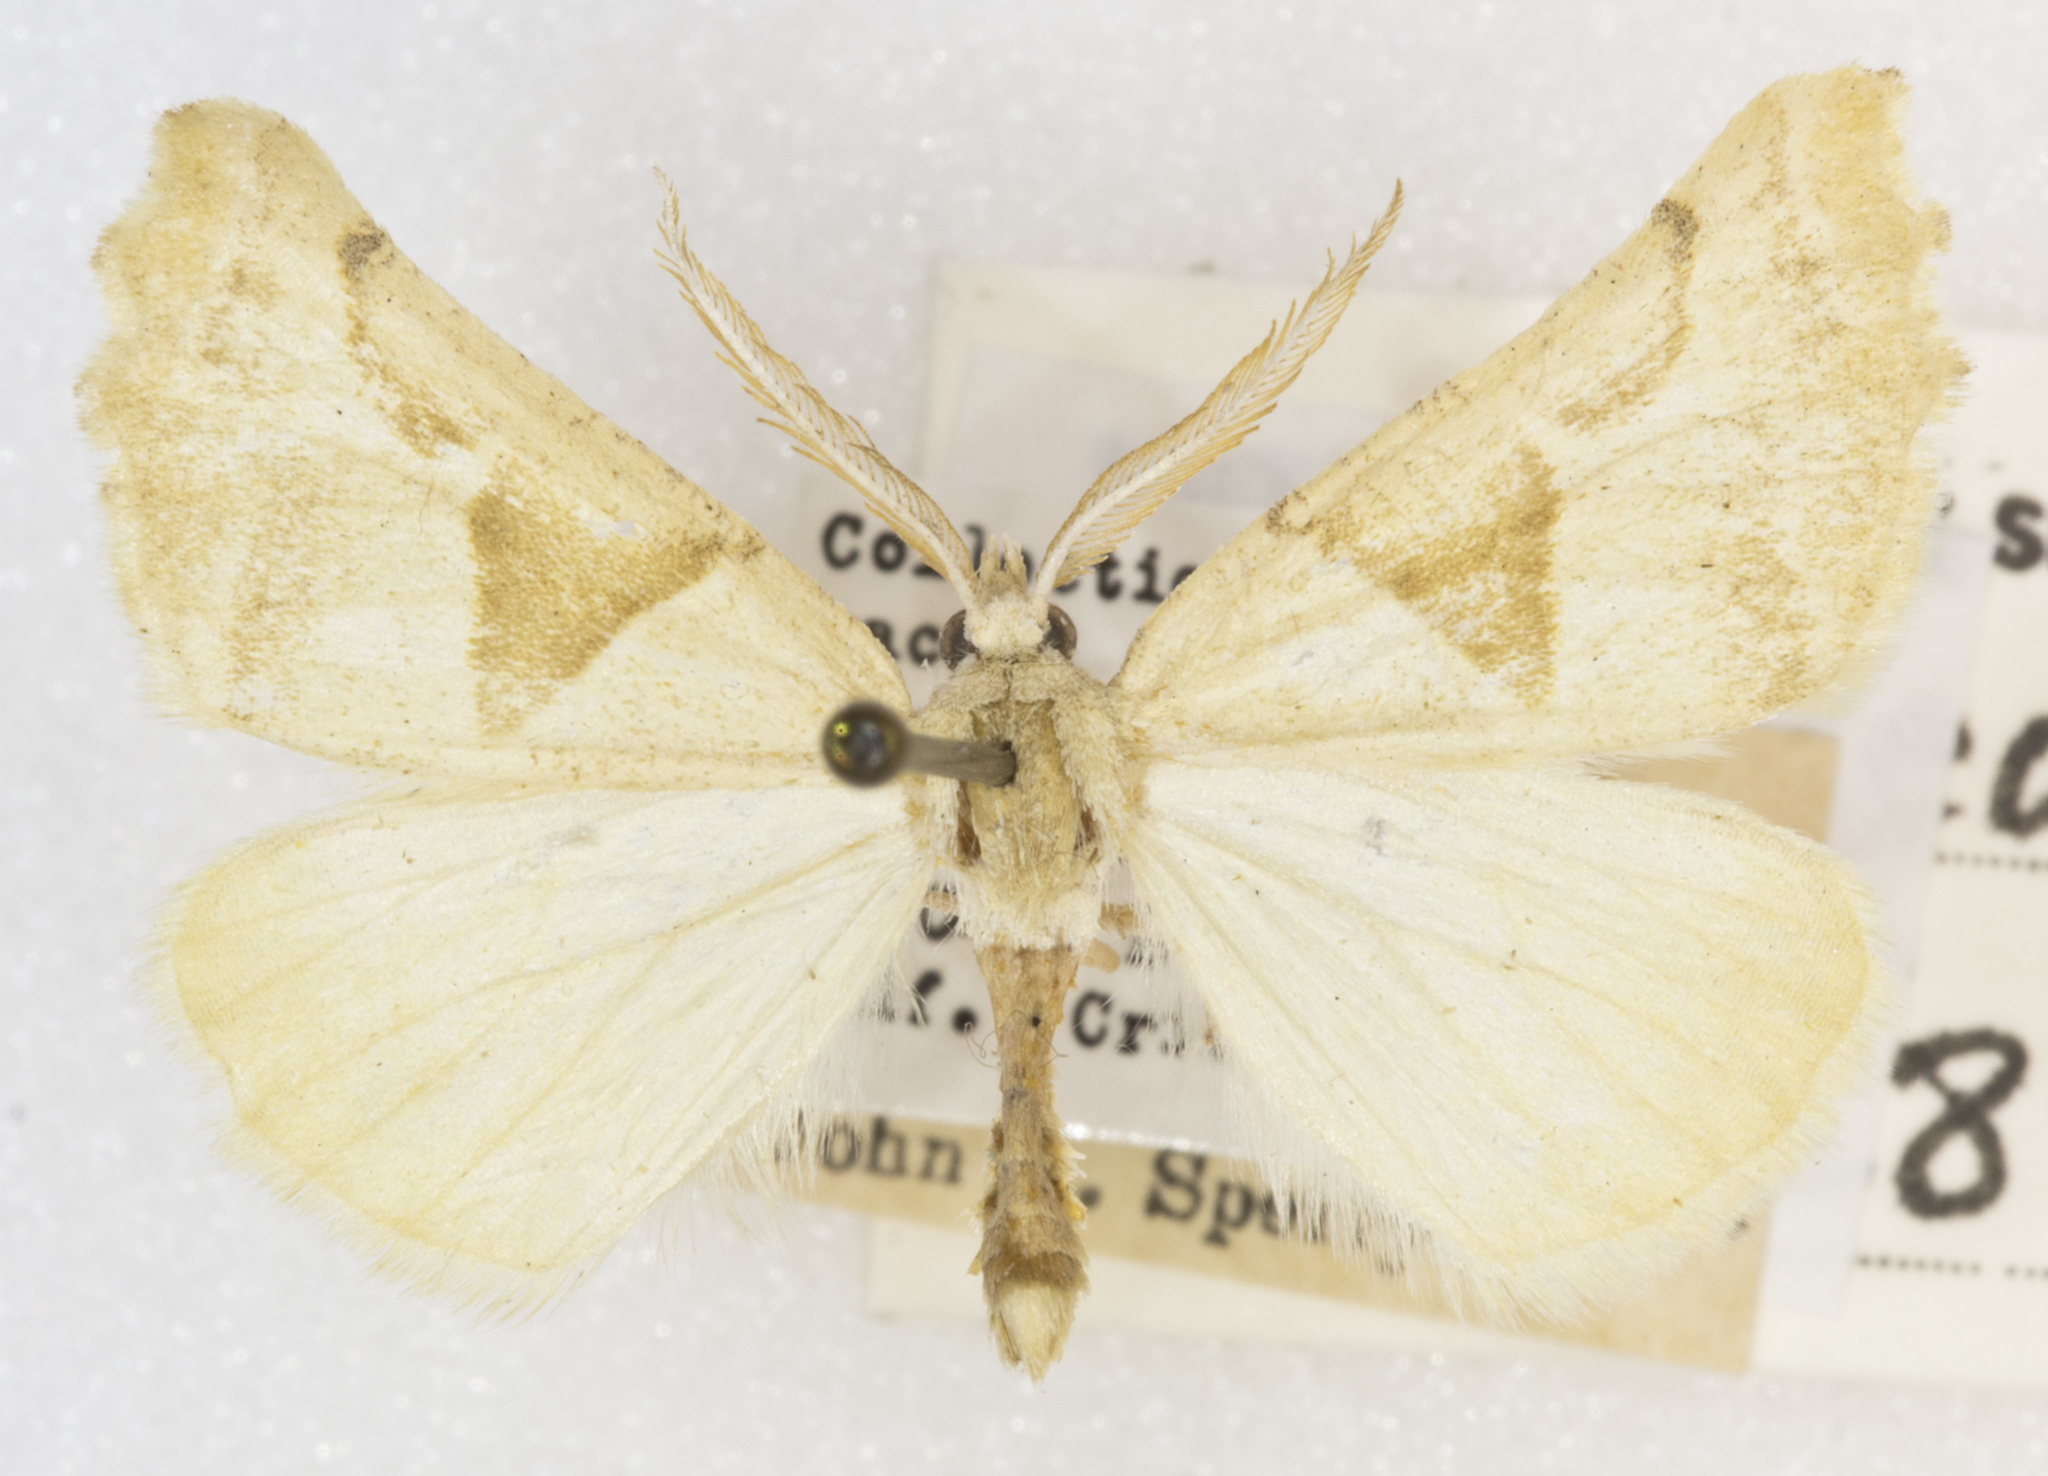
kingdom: Animalia
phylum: Arthropoda
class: Insecta
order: Lepidoptera
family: Geometridae
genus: Plataea
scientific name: Plataea calcaria
